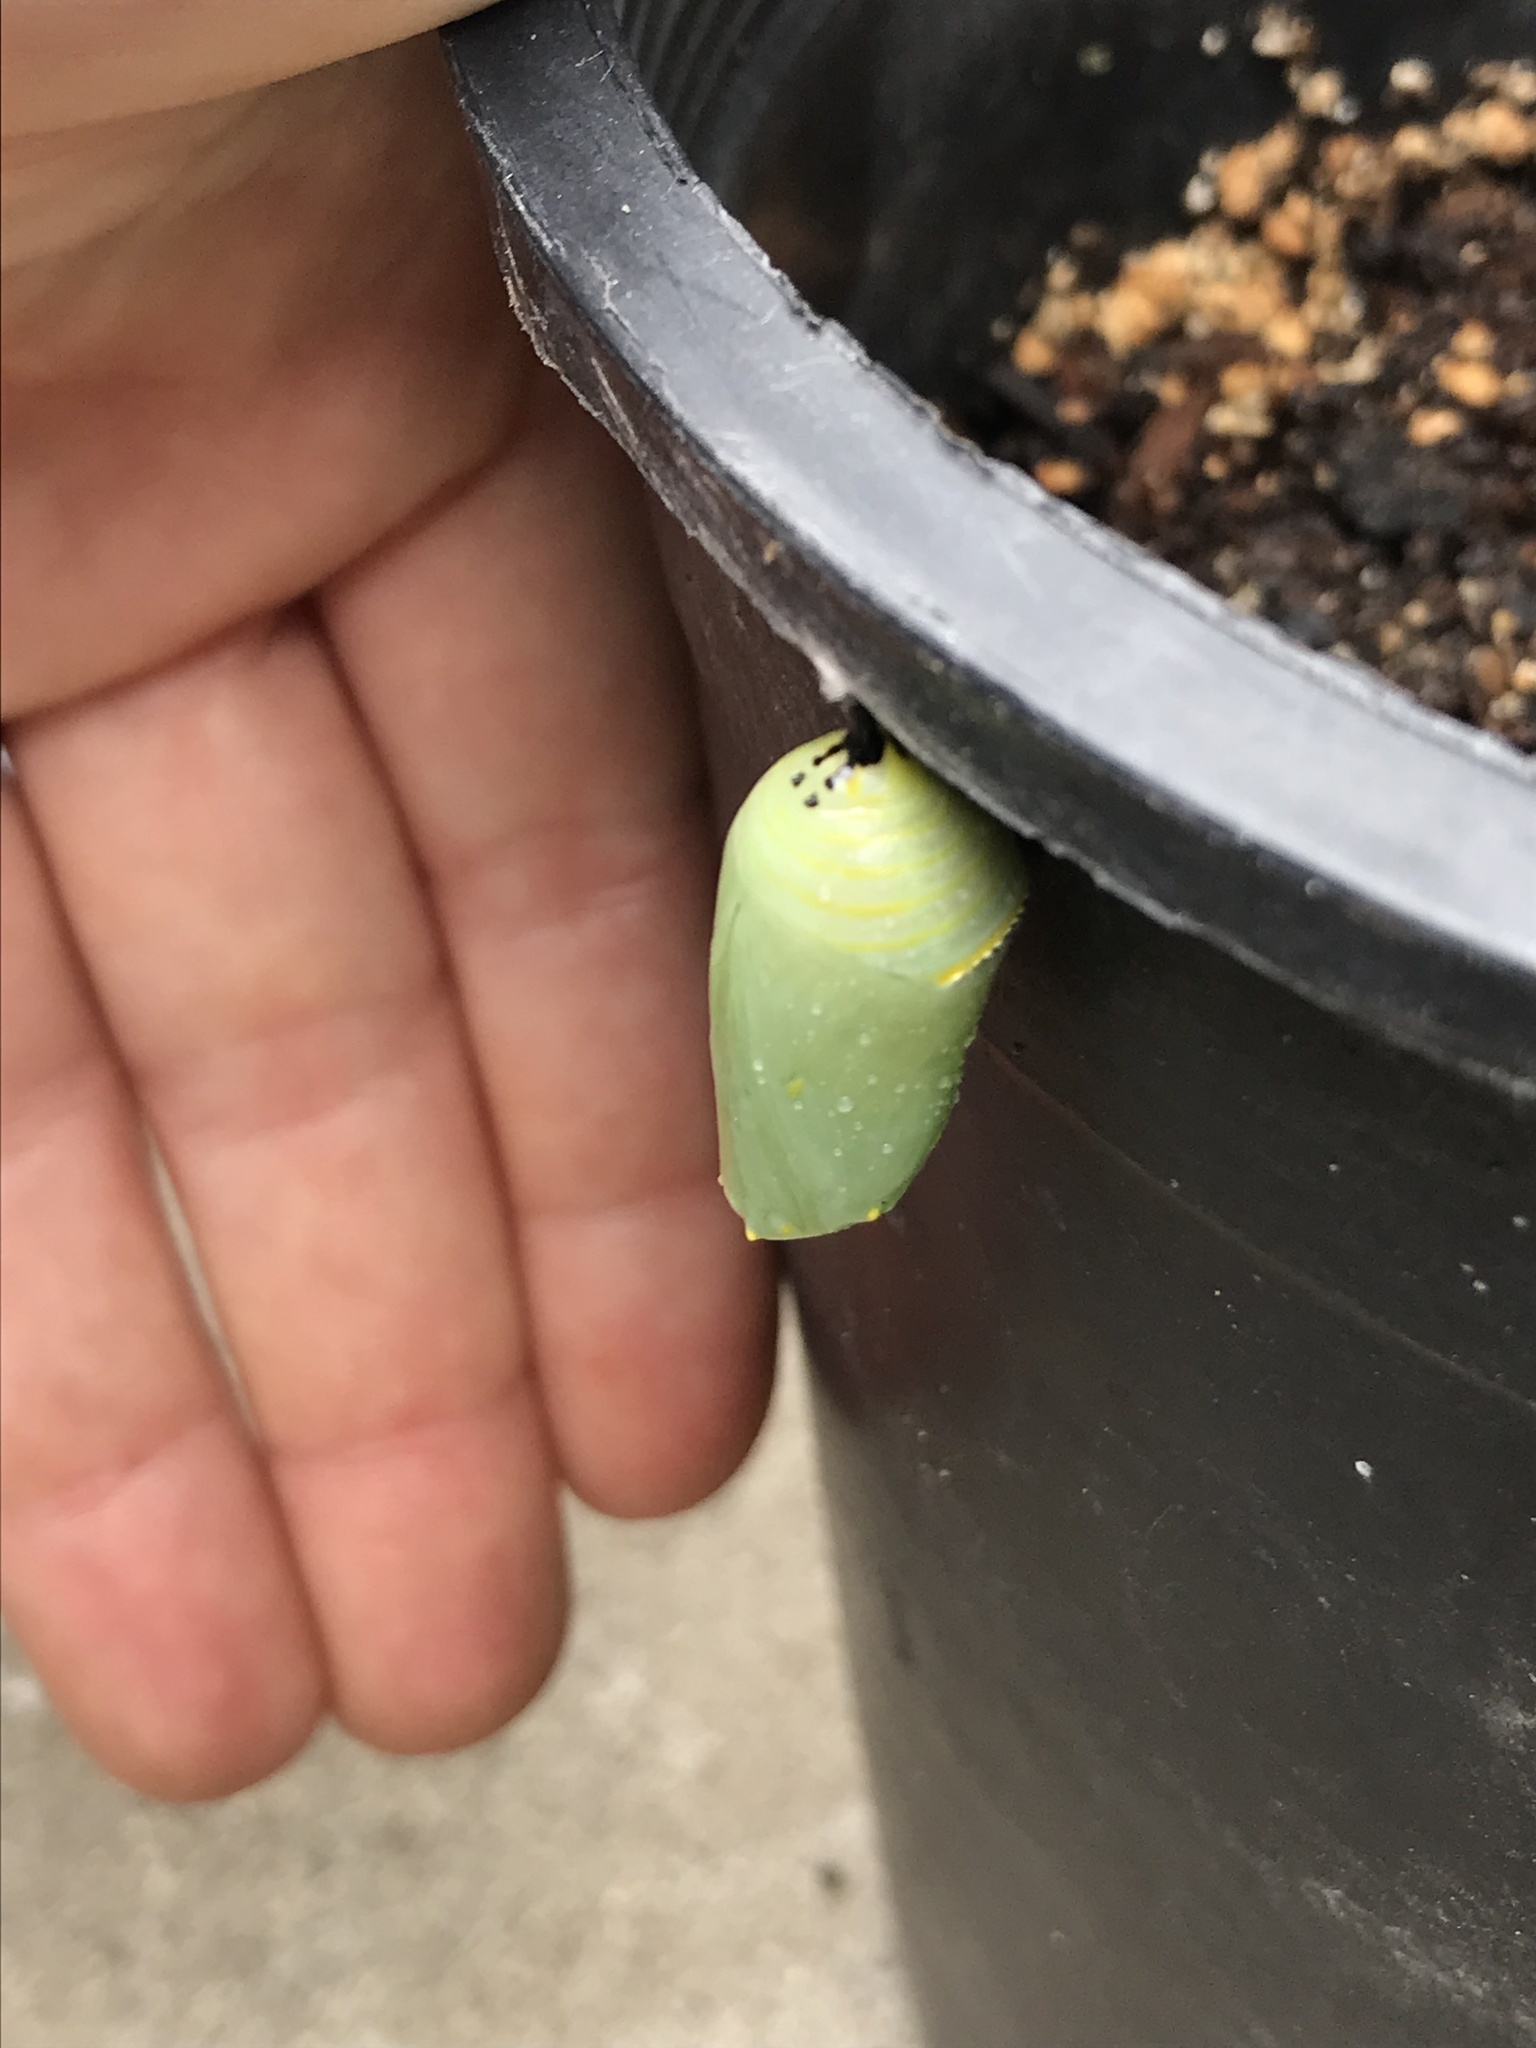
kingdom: Animalia
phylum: Arthropoda
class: Insecta
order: Lepidoptera
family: Nymphalidae
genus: Danaus
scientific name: Danaus plexippus
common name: Monarch
